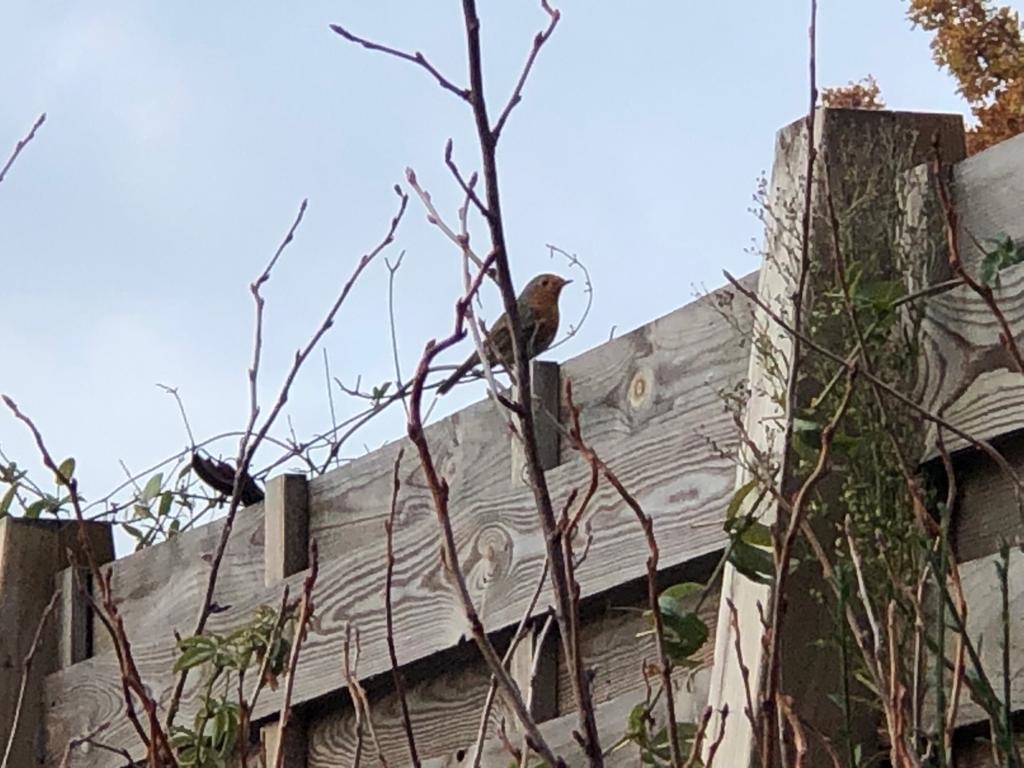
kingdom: Animalia
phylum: Chordata
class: Aves
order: Passeriformes
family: Muscicapidae
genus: Erithacus
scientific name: Erithacus rubecula
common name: European robin
